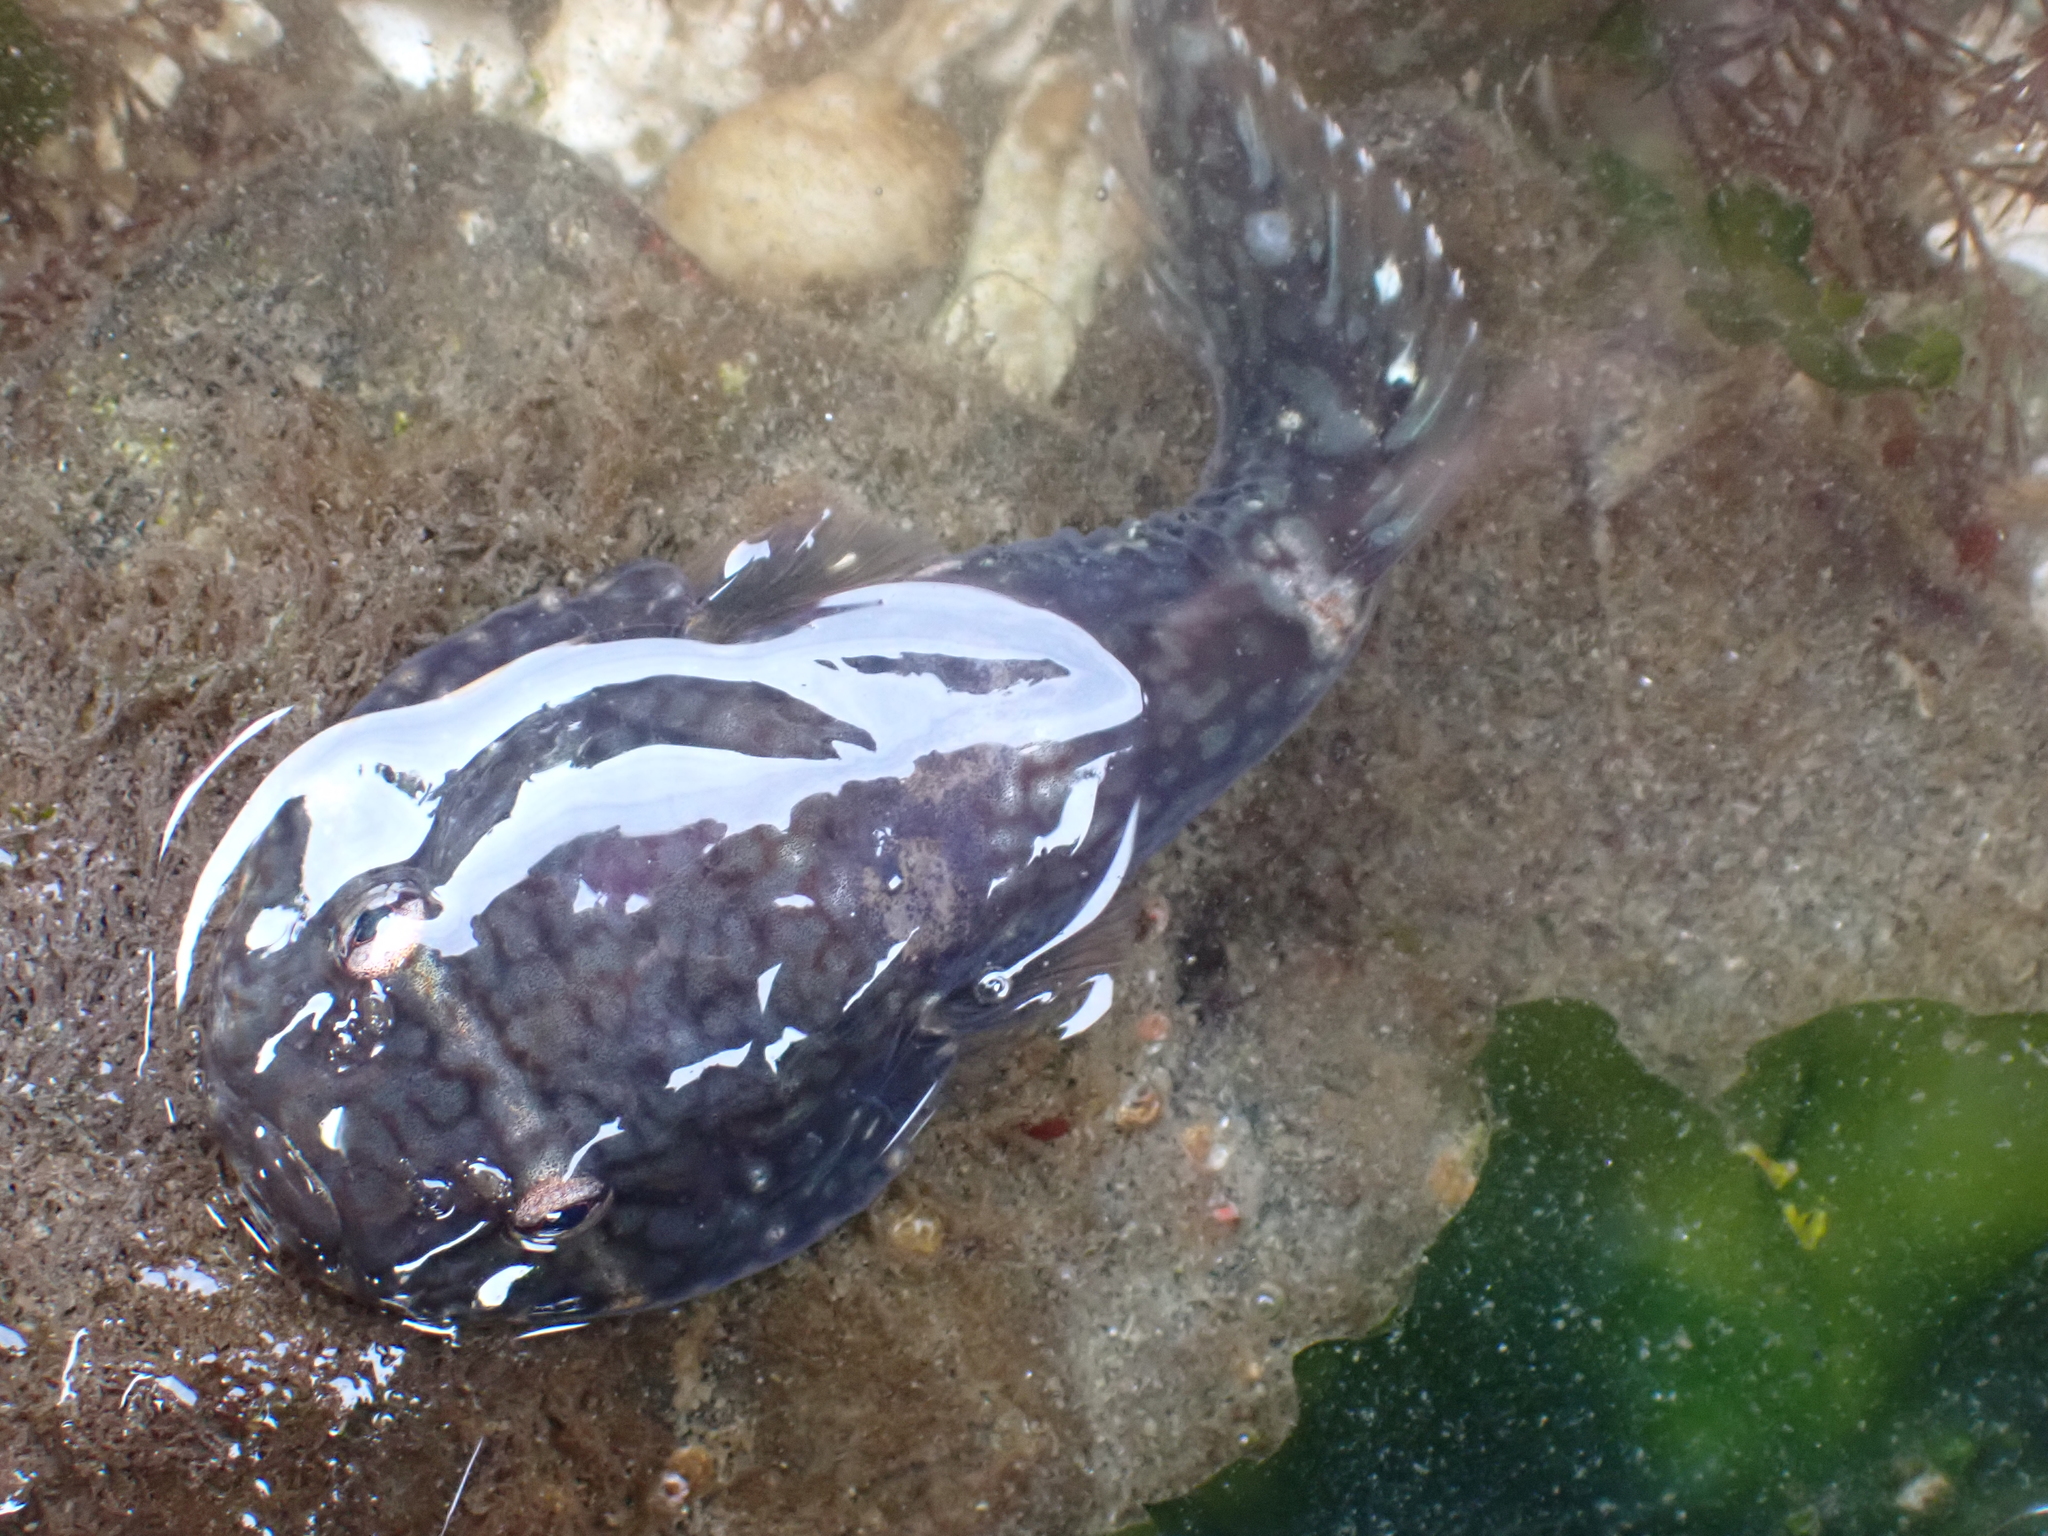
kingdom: Animalia
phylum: Chordata
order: Gobiesociformes
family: Gobiesocidae
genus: Gobiesox
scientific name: Gobiesox maeandricus
